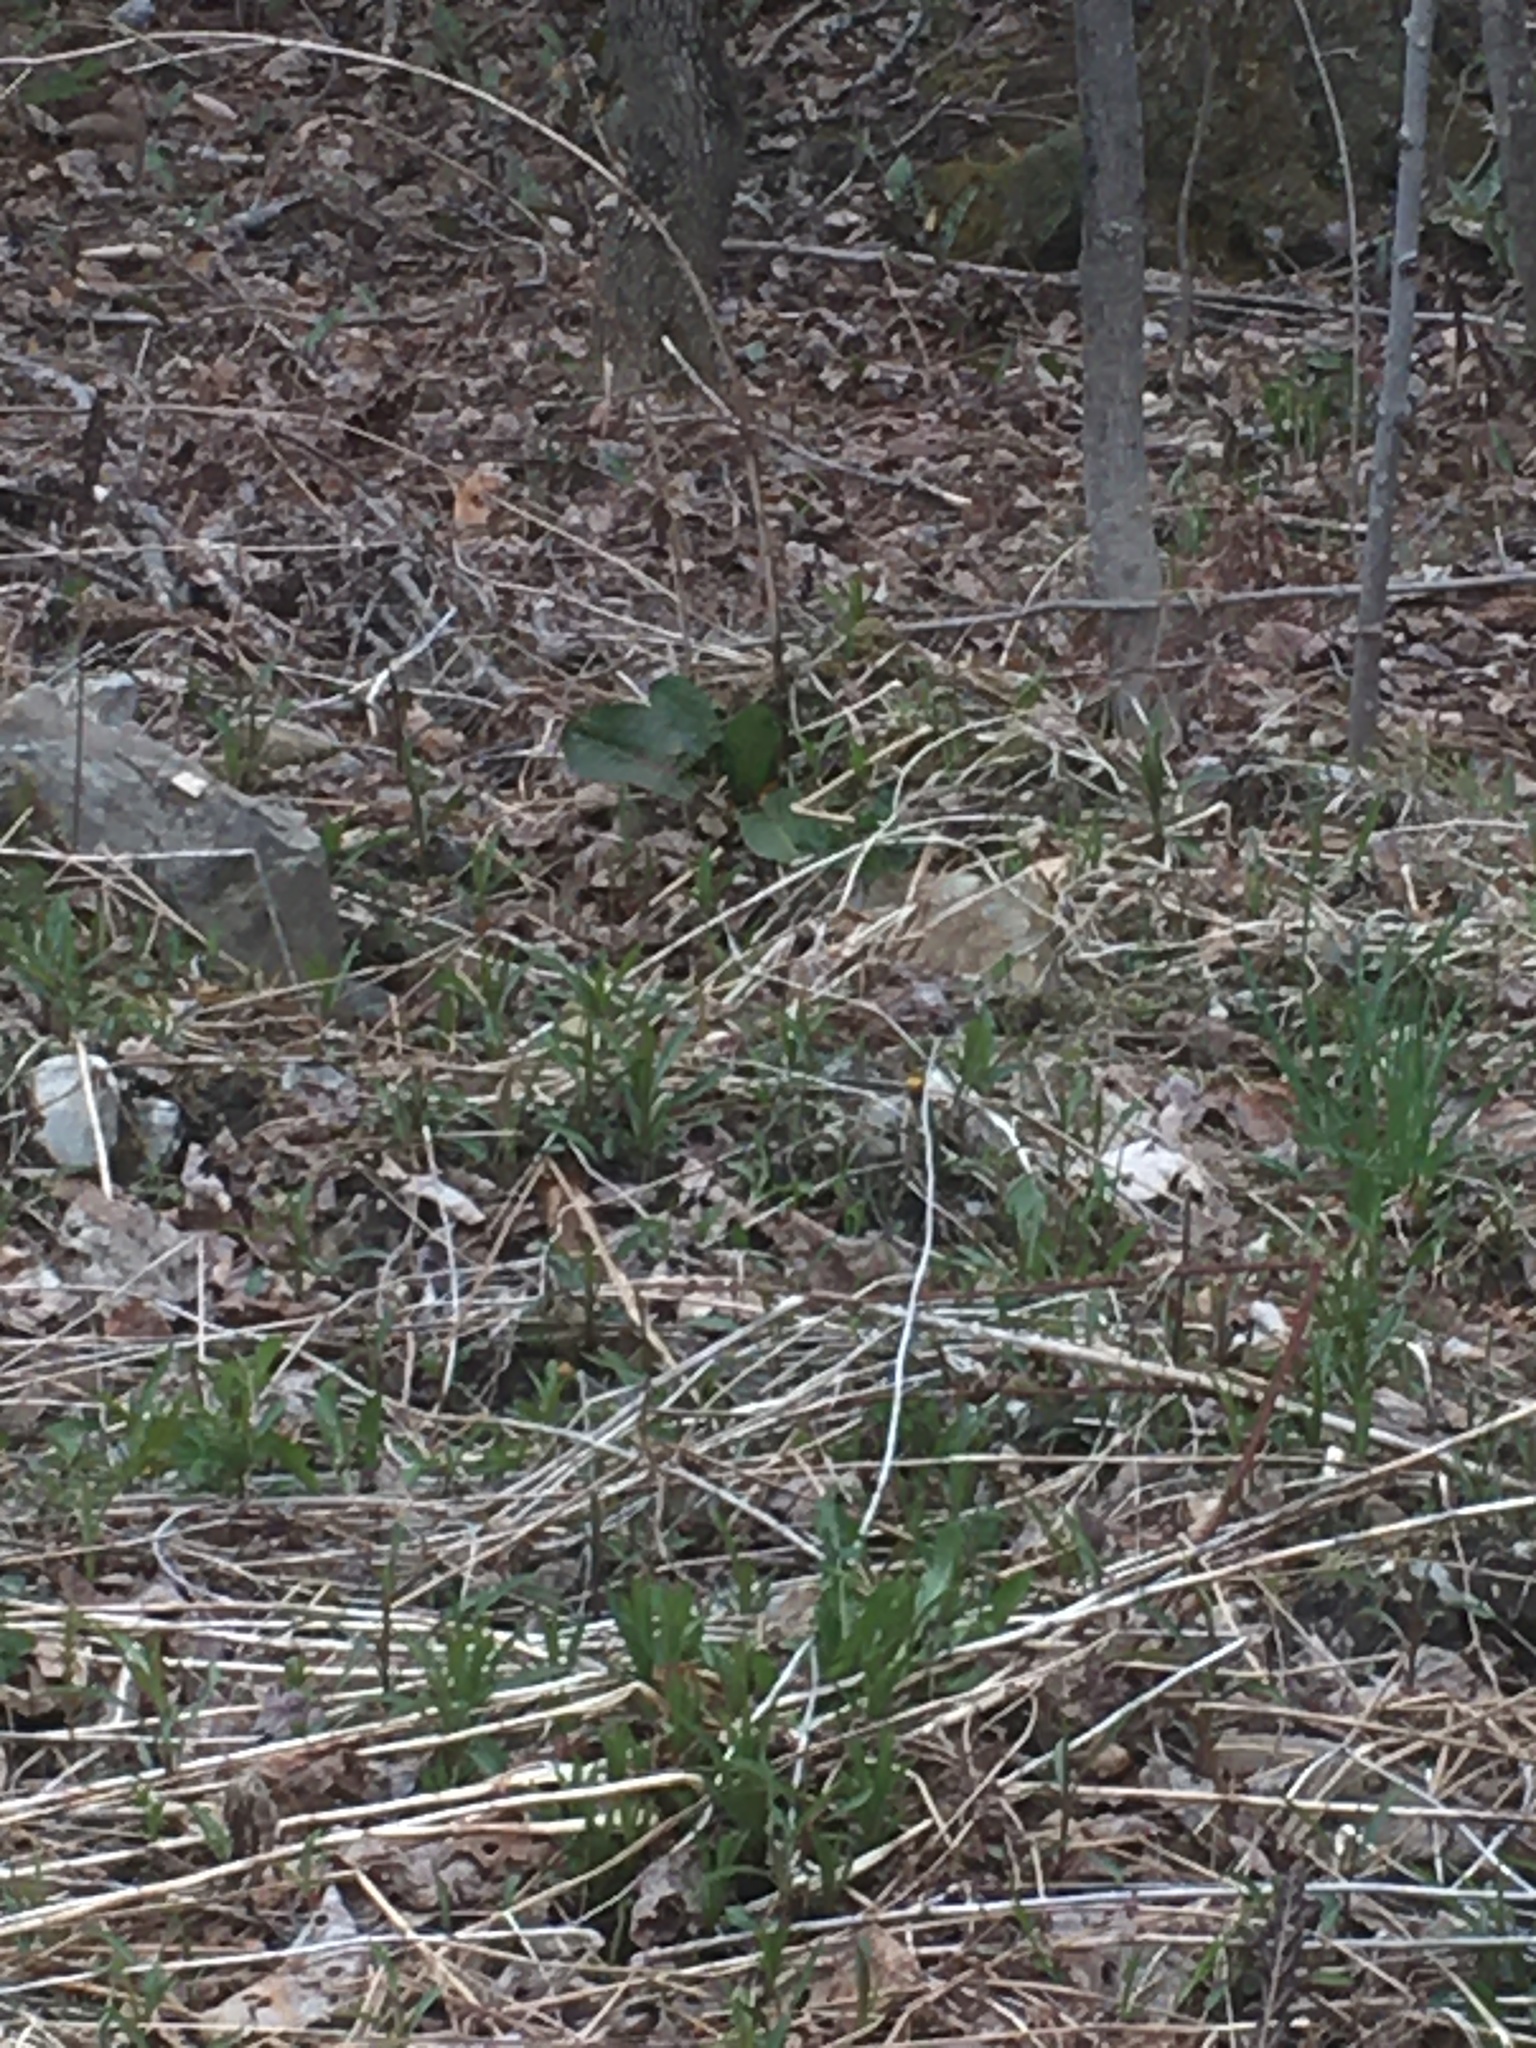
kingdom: Plantae
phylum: Tracheophyta
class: Magnoliopsida
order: Caryophyllales
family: Polygonaceae
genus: Rumex
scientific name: Rumex obtusifolius
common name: Bitter dock
